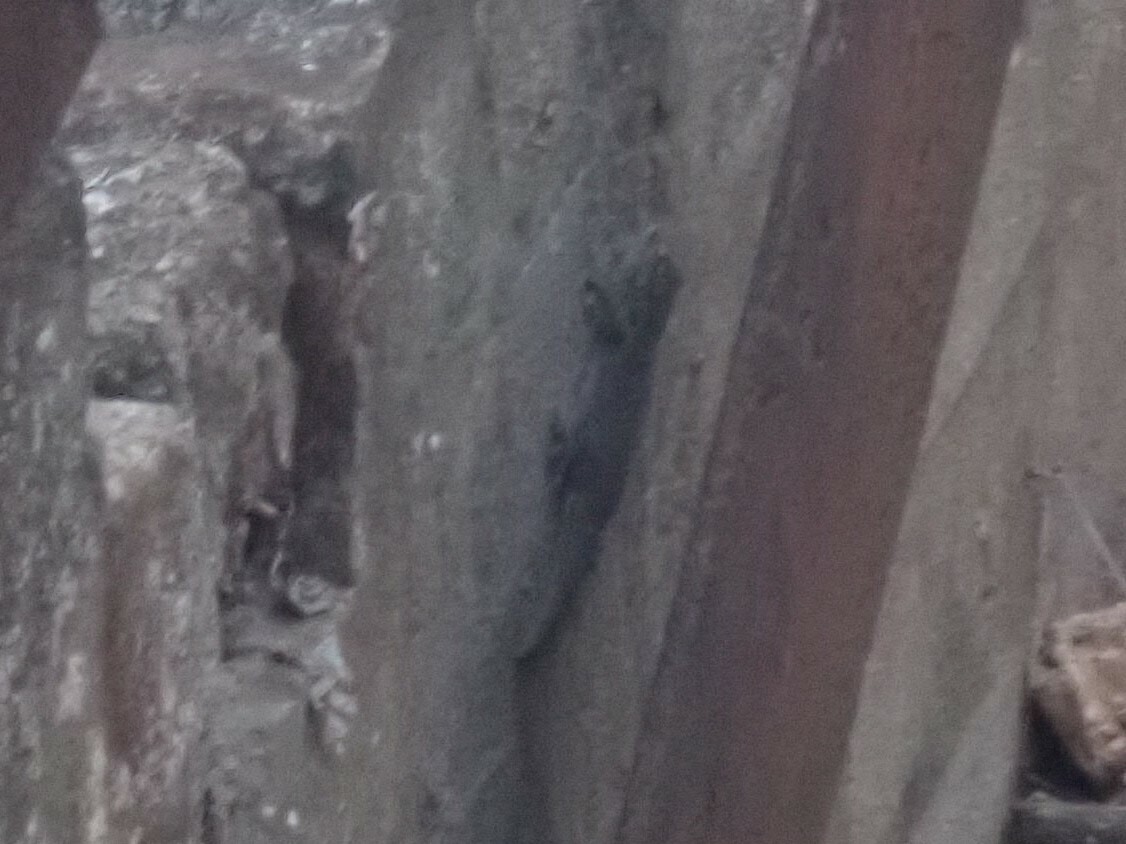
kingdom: Animalia
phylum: Chordata
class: Squamata
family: Phyllodactylidae
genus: Tarentola
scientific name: Tarentola mauritanica
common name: Moorish gecko
